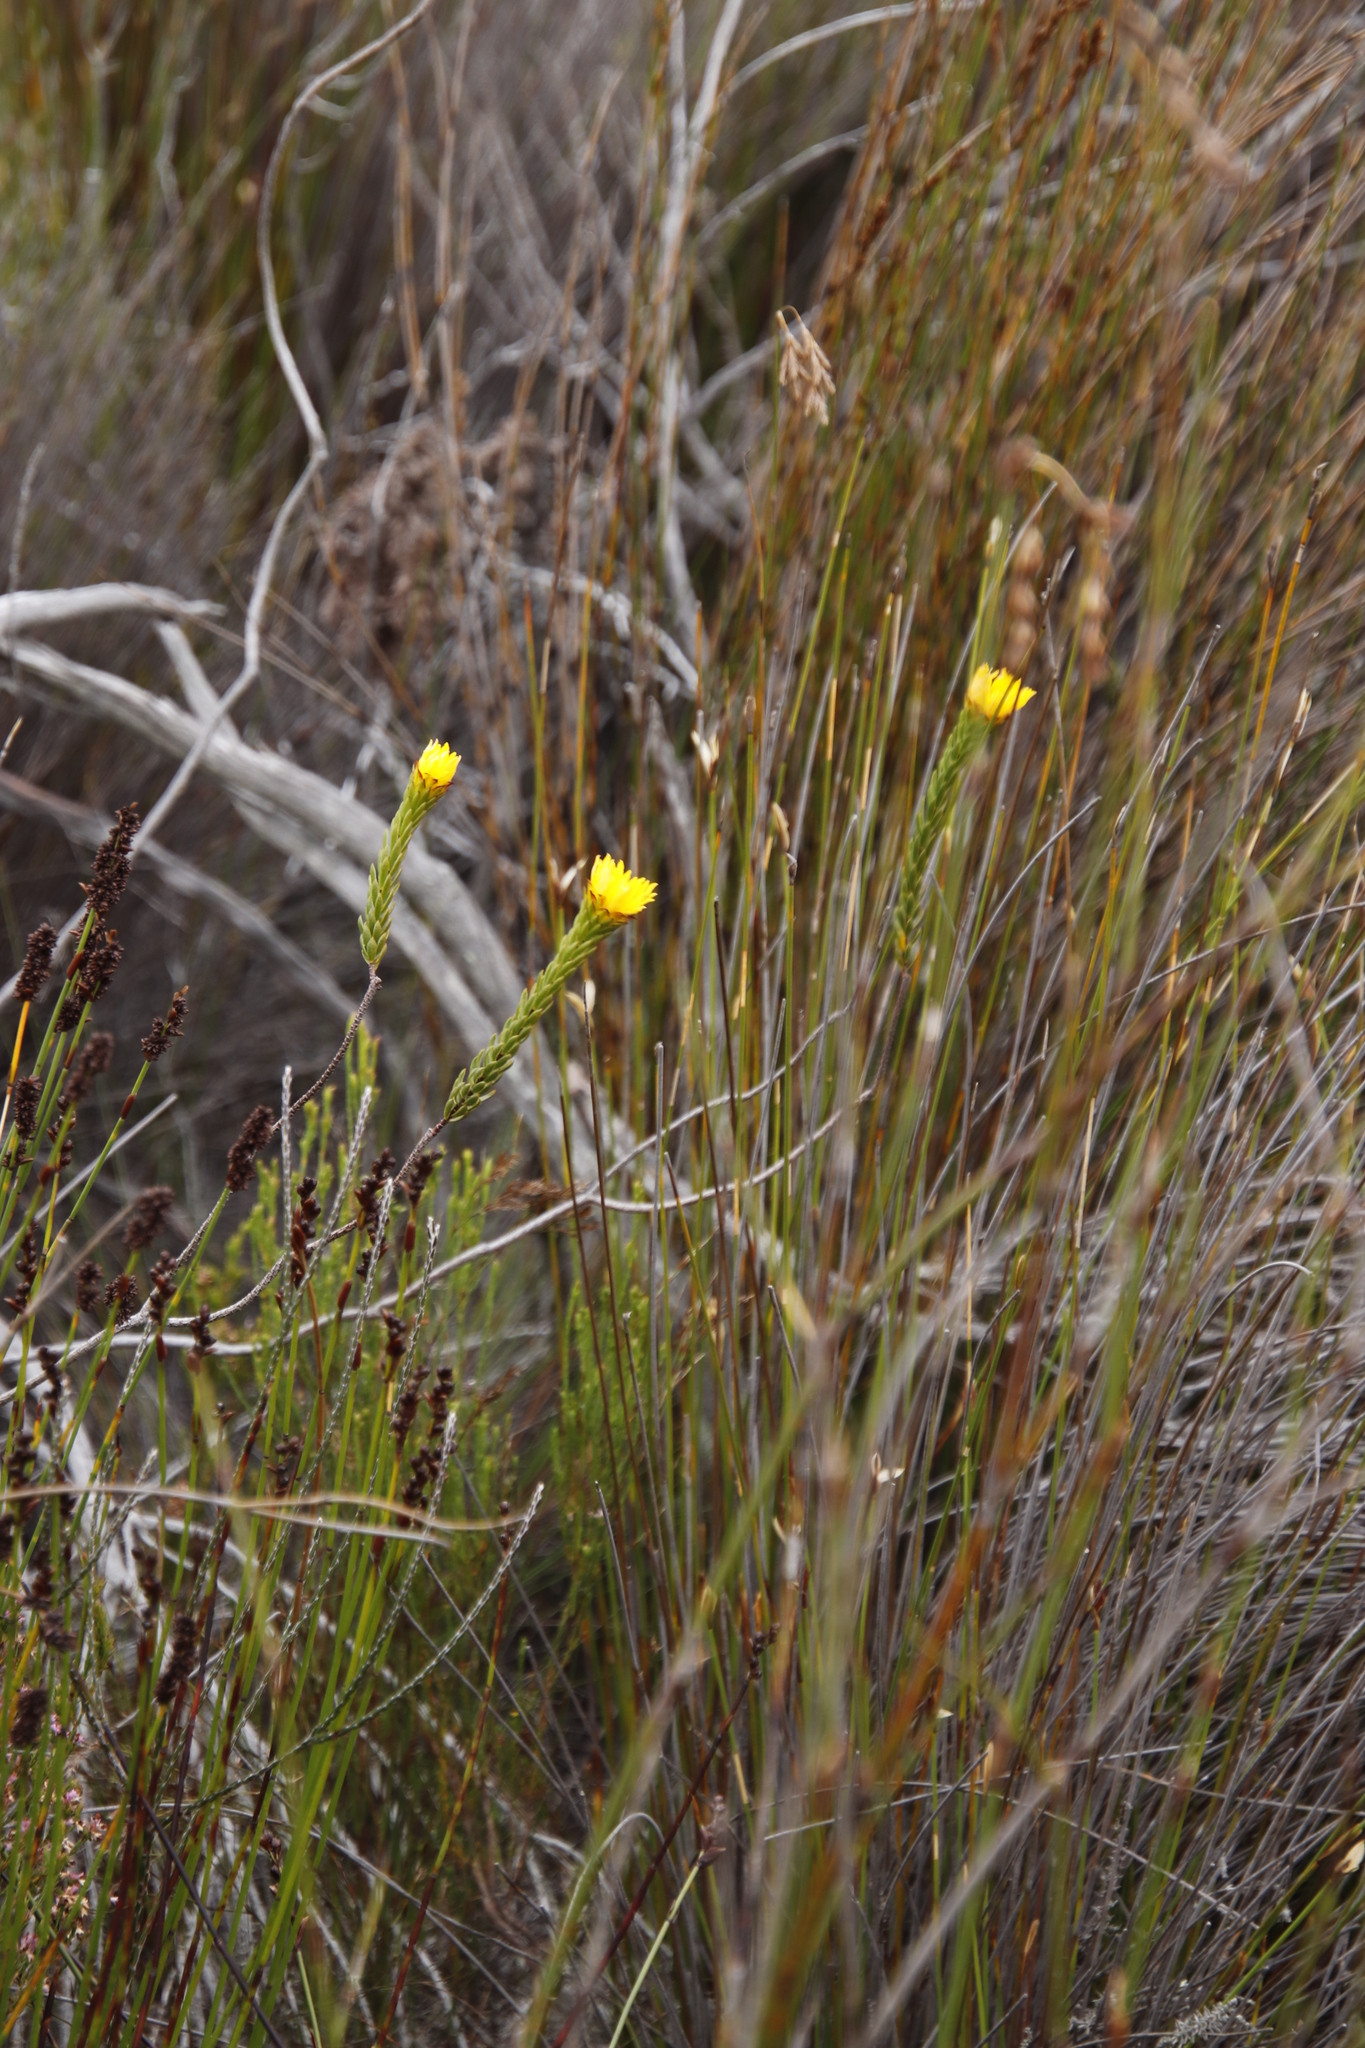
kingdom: Plantae
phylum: Tracheophyta
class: Magnoliopsida
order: Malvales
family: Thymelaeaceae
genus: Lachnaea
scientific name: Lachnaea aurea
